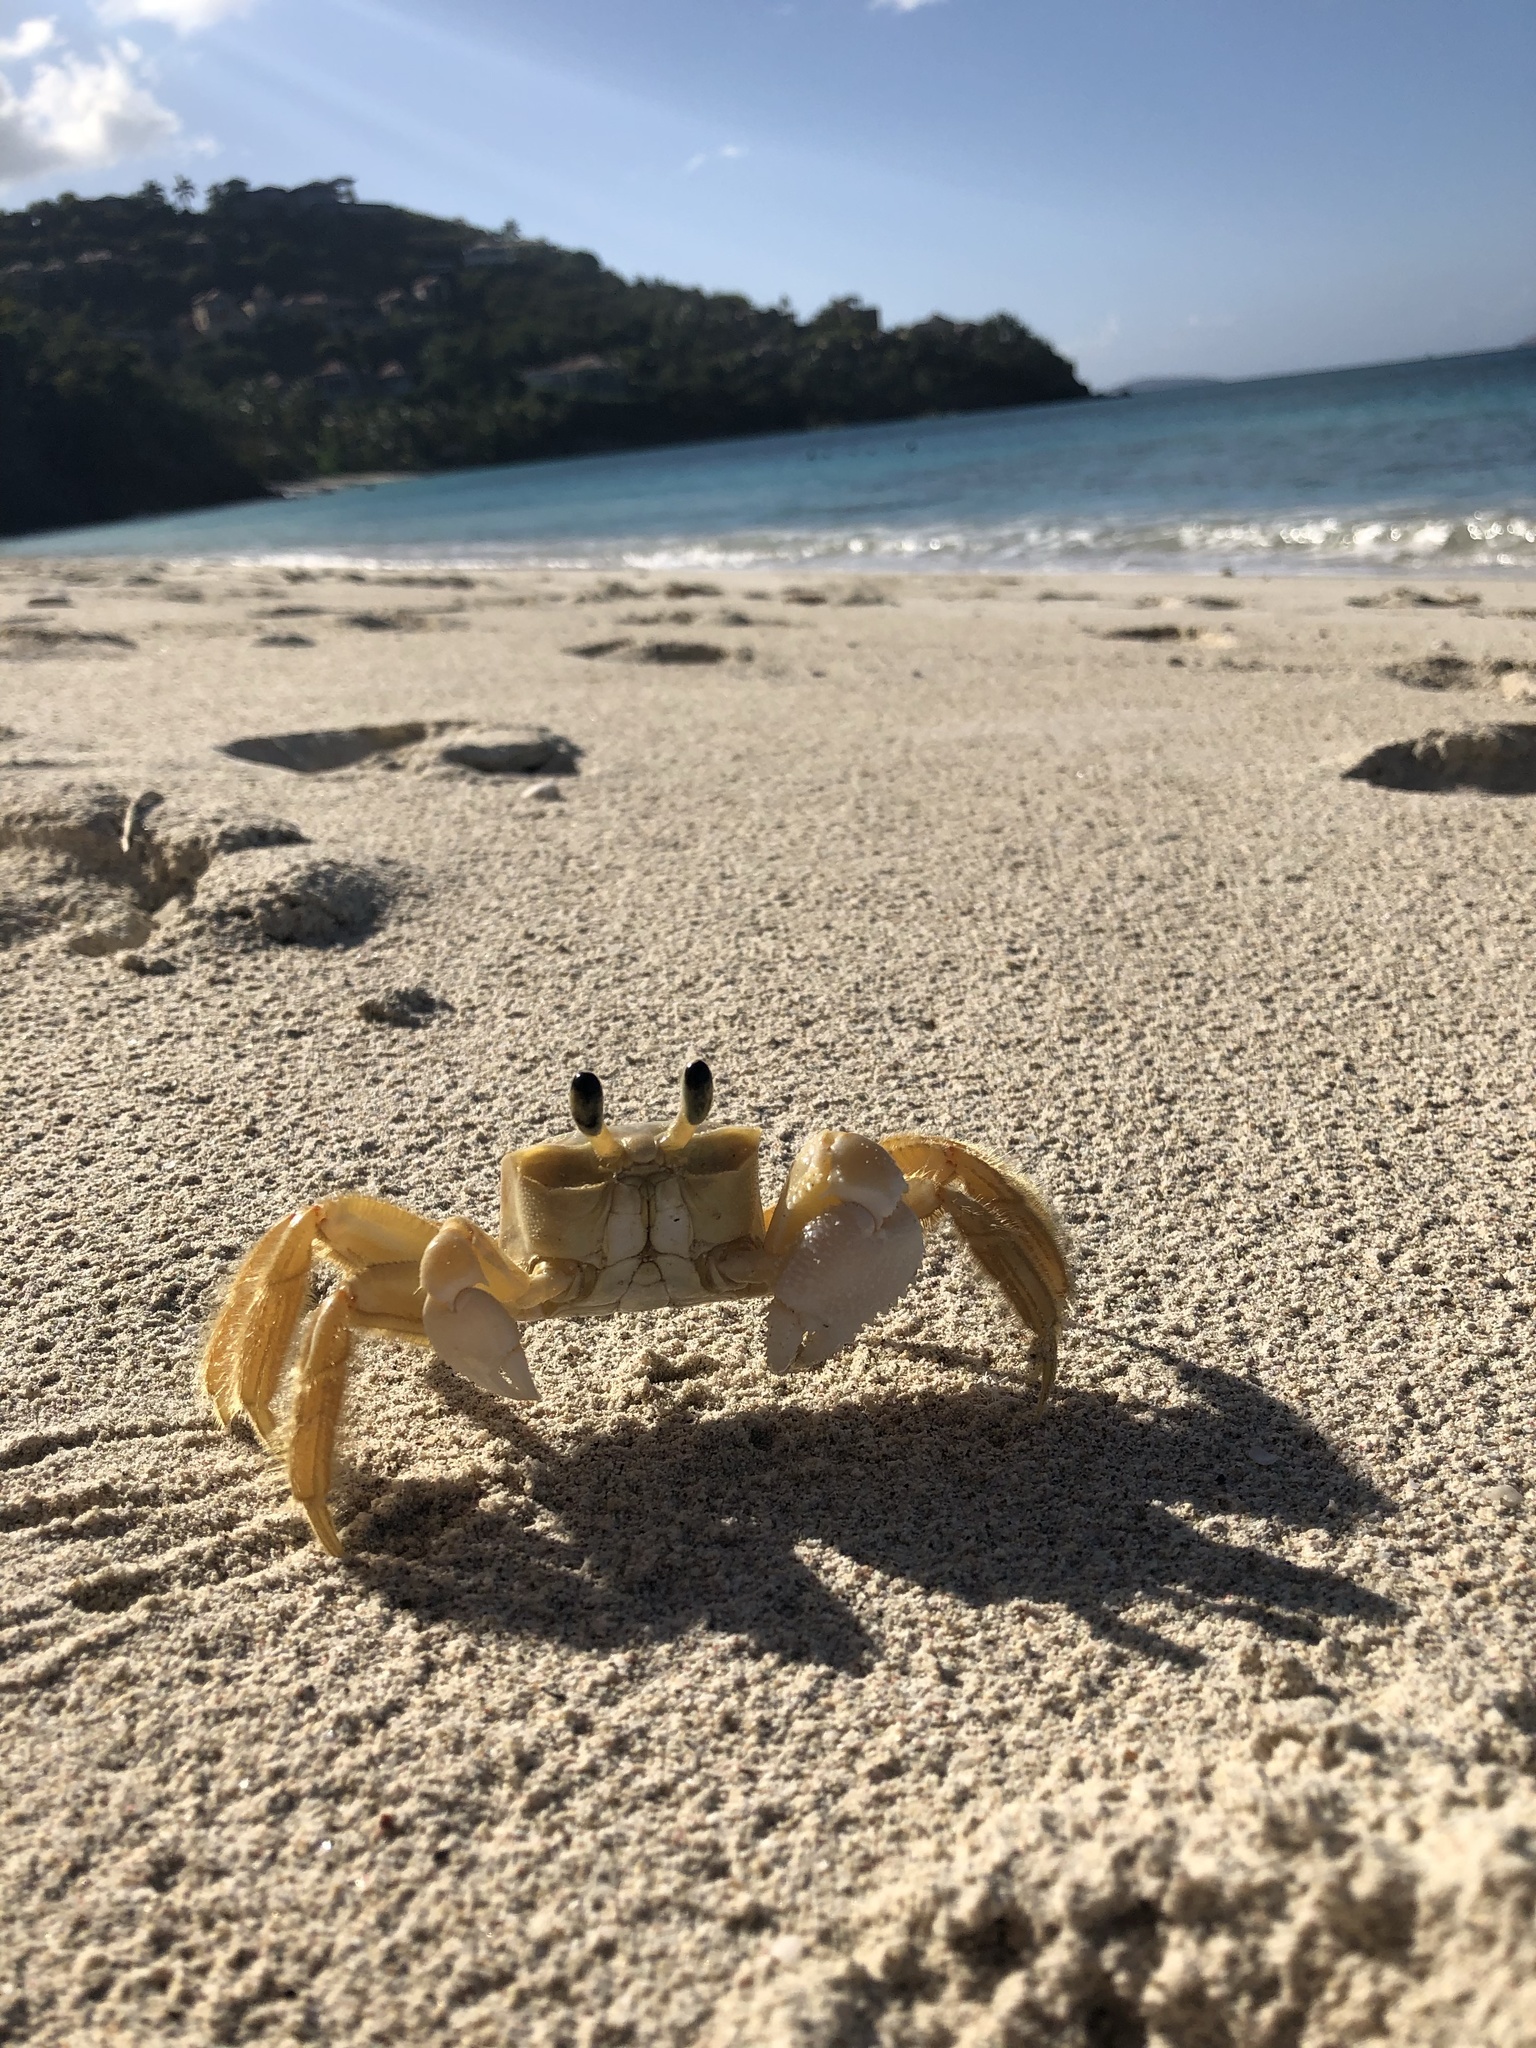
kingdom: Animalia
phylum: Arthropoda
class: Malacostraca
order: Decapoda
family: Ocypodidae
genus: Ocypode
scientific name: Ocypode quadrata
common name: Ghost crab
